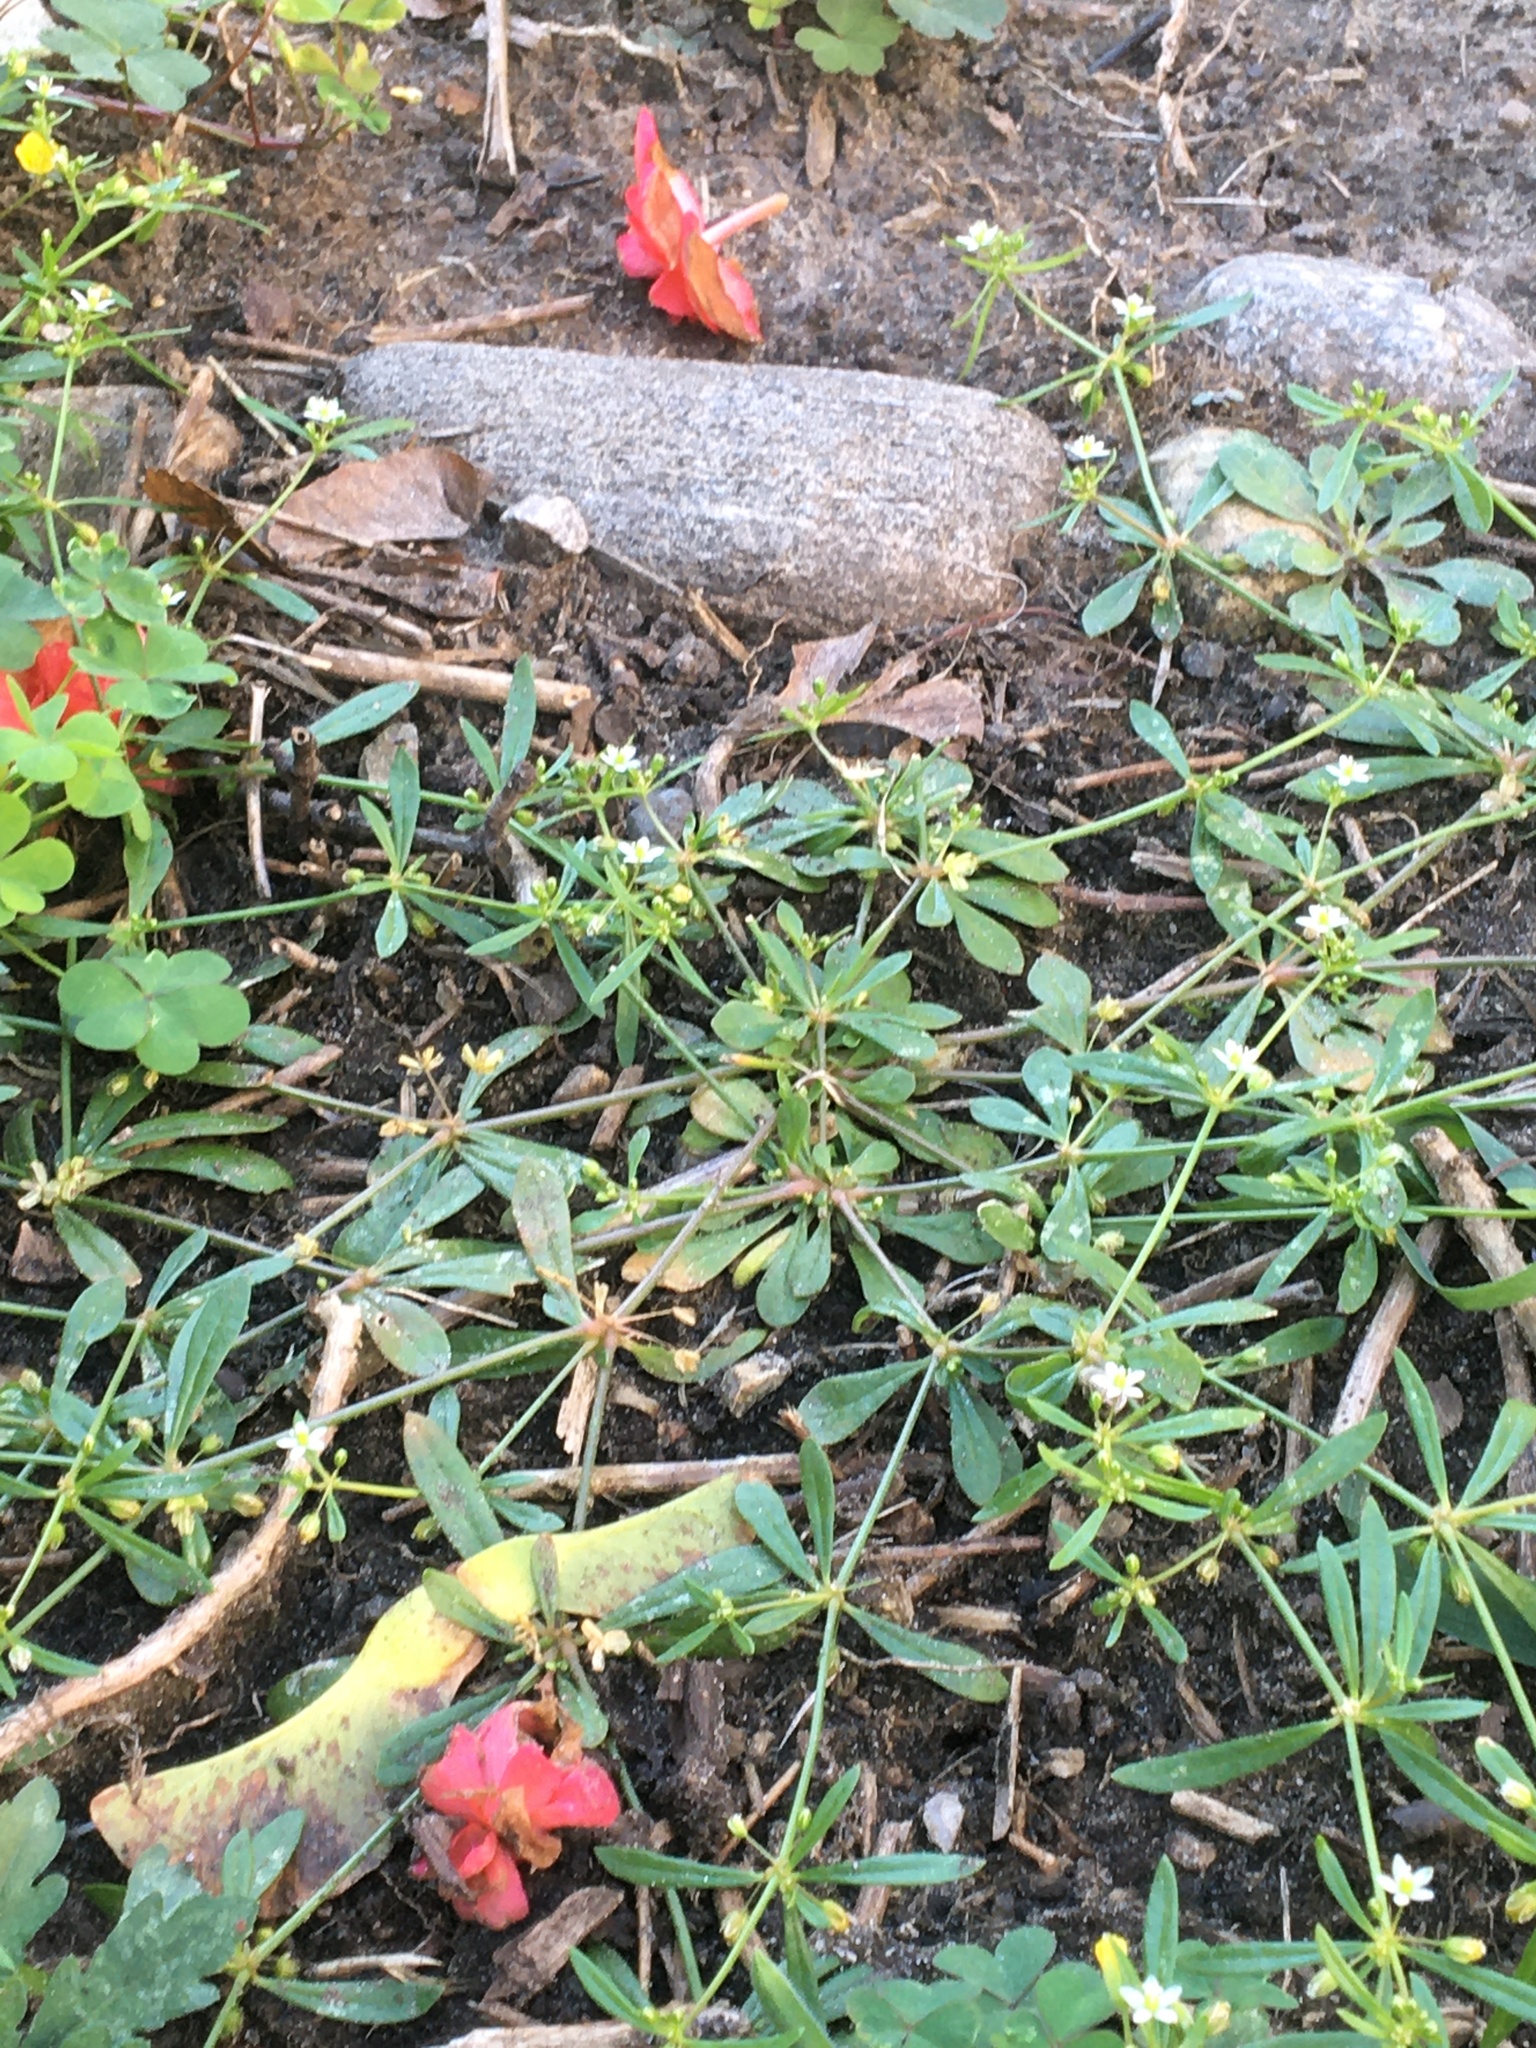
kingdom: Plantae
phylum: Tracheophyta
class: Magnoliopsida
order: Caryophyllales
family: Molluginaceae
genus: Mollugo
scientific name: Mollugo verticillata
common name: Green carpetweed
